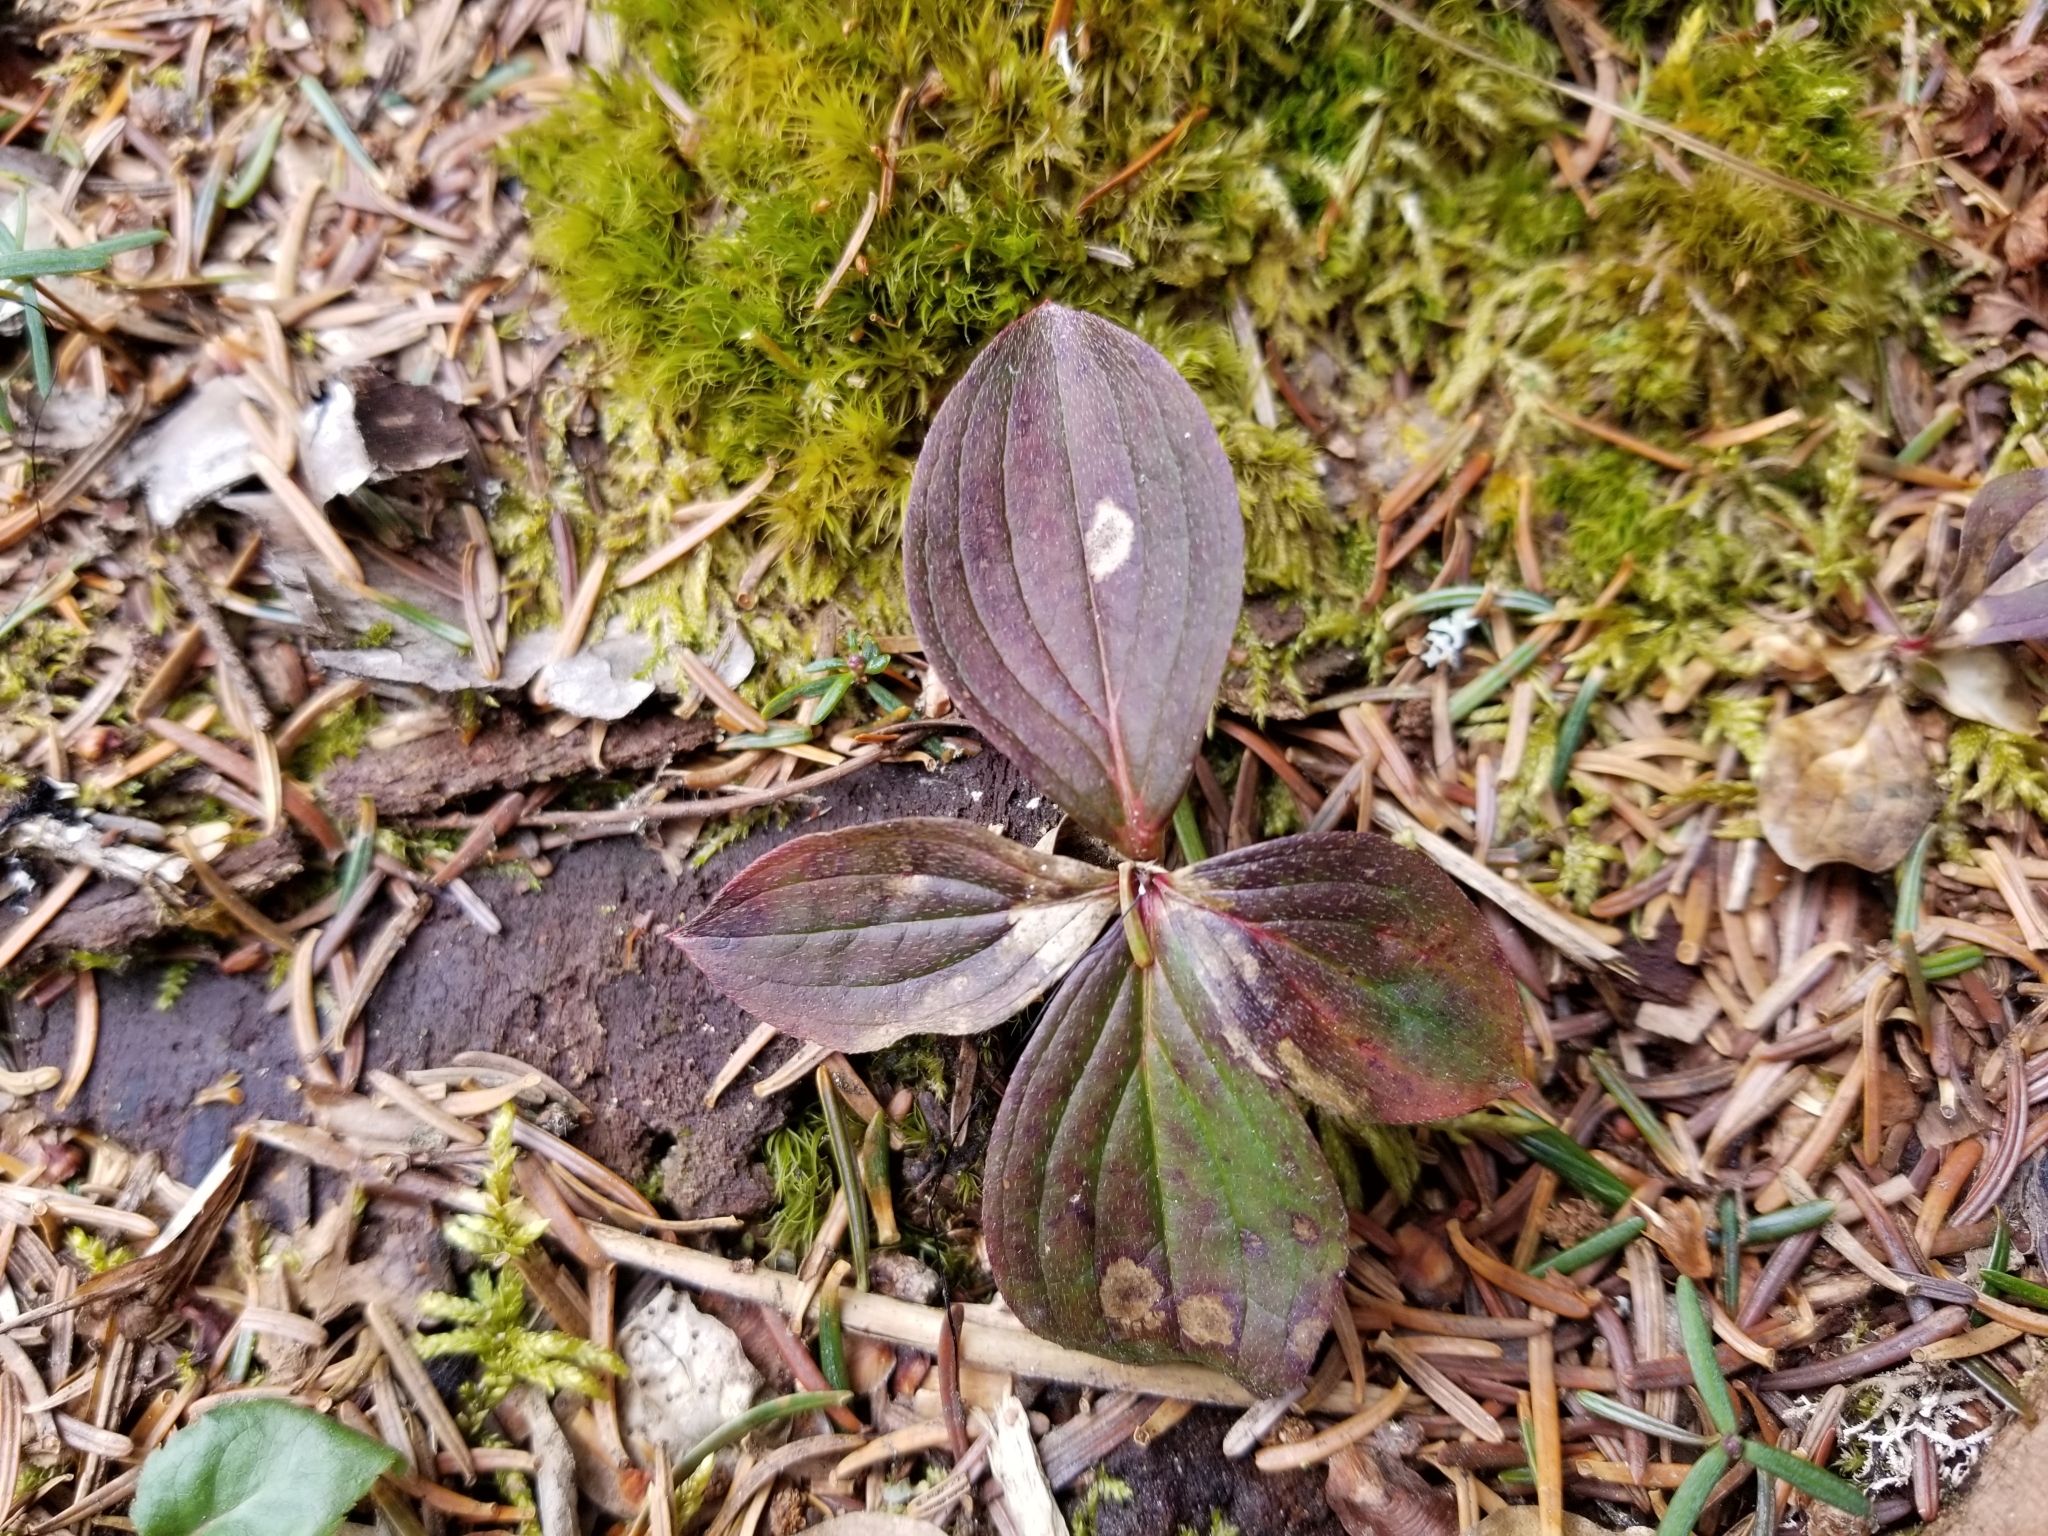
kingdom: Plantae
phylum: Tracheophyta
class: Magnoliopsida
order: Cornales
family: Cornaceae
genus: Cornus
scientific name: Cornus canadensis
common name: Creeping dogwood
